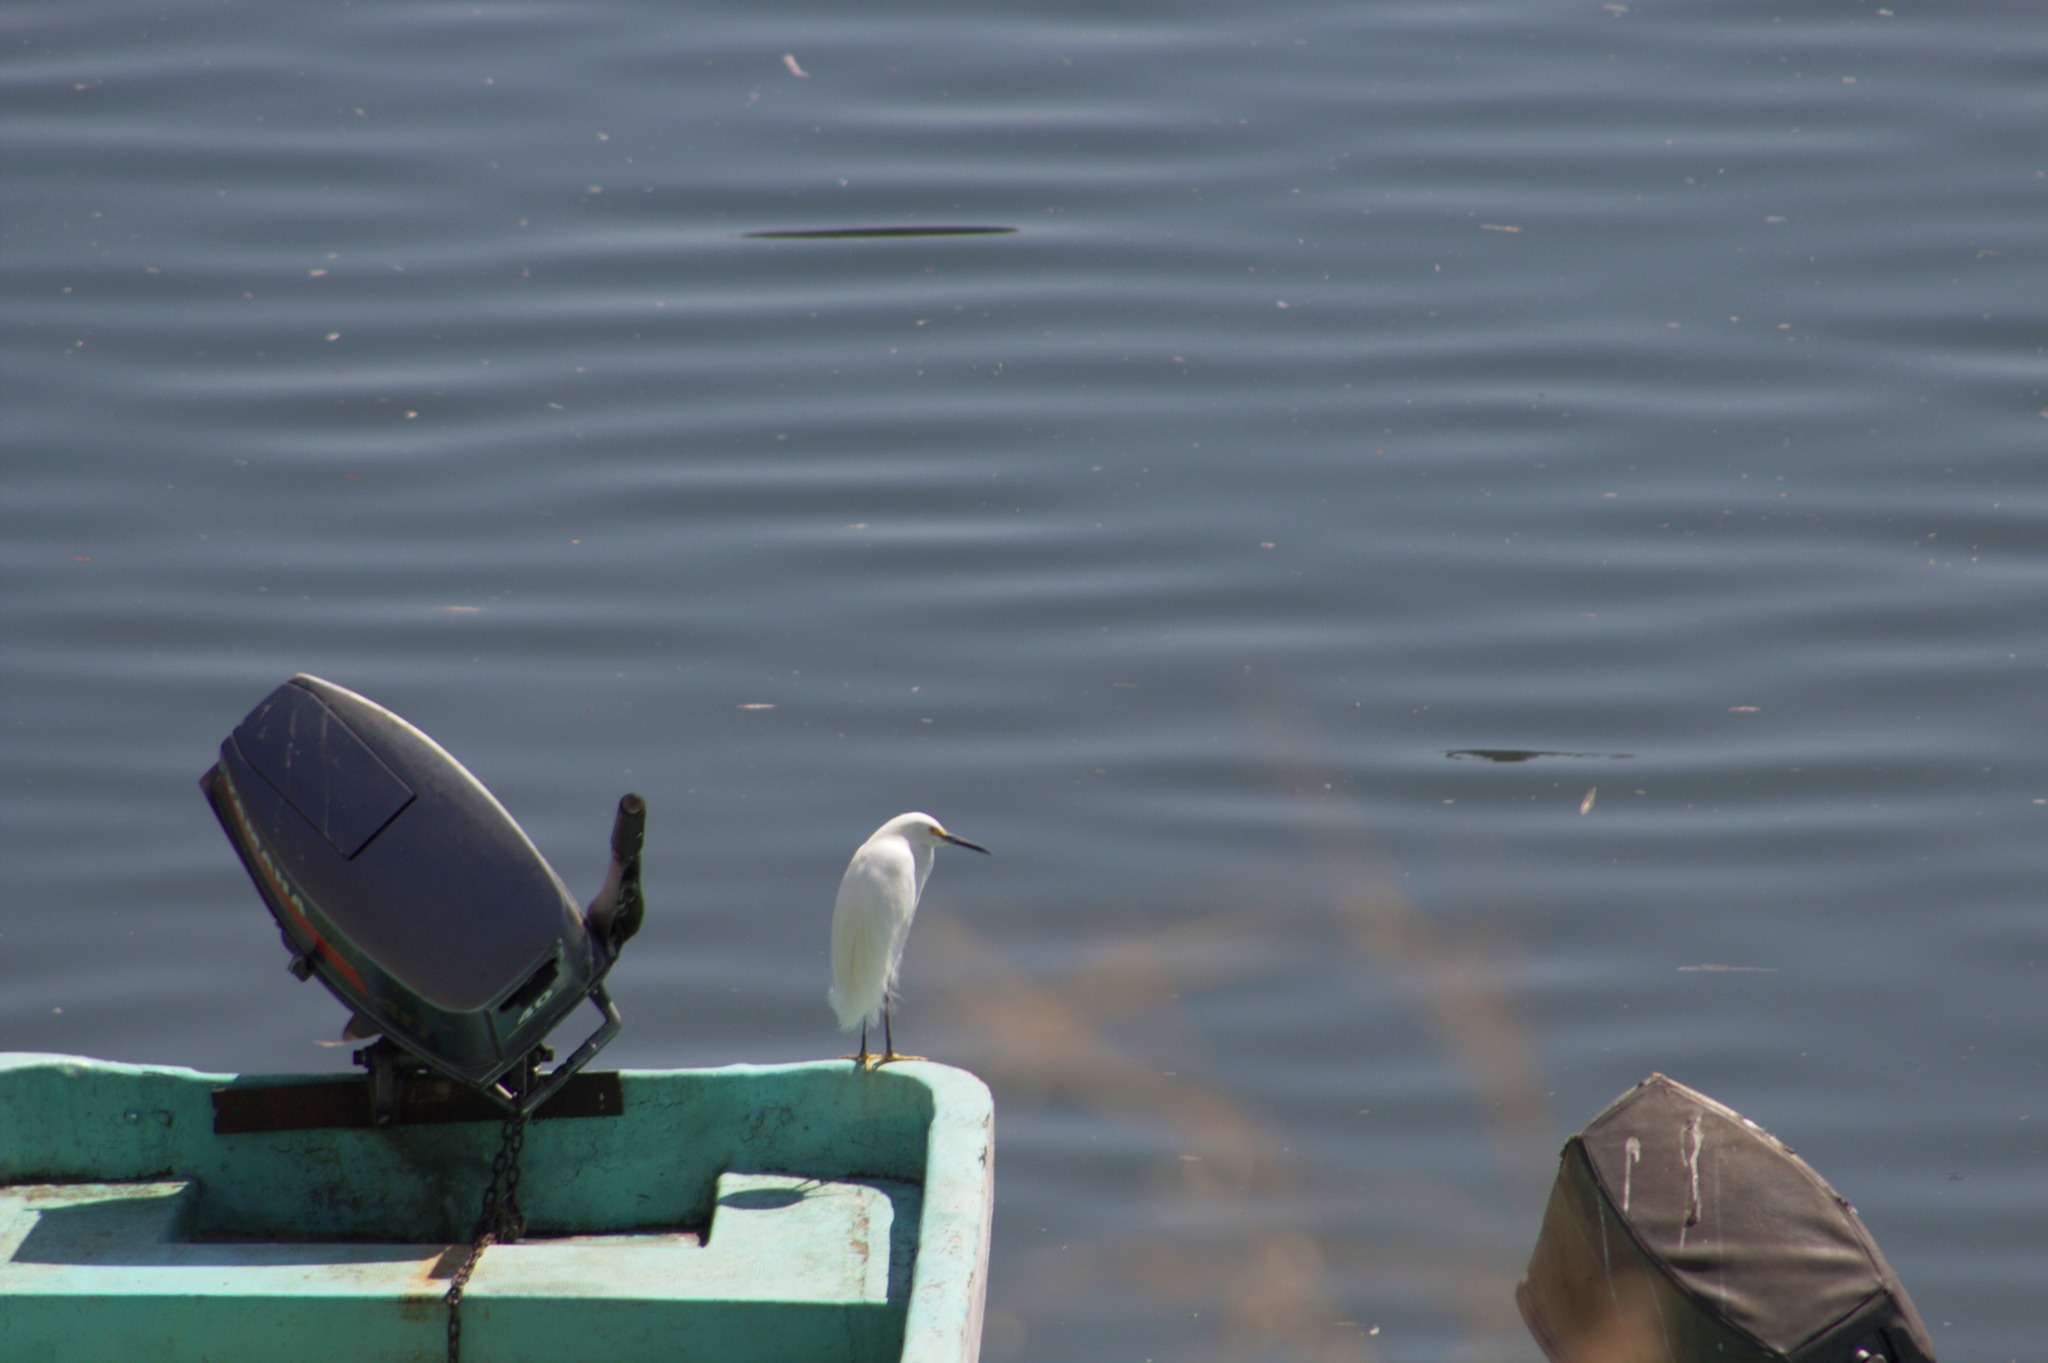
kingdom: Animalia
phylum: Chordata
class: Aves
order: Pelecaniformes
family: Ardeidae
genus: Egretta
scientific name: Egretta thula
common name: Snowy egret
